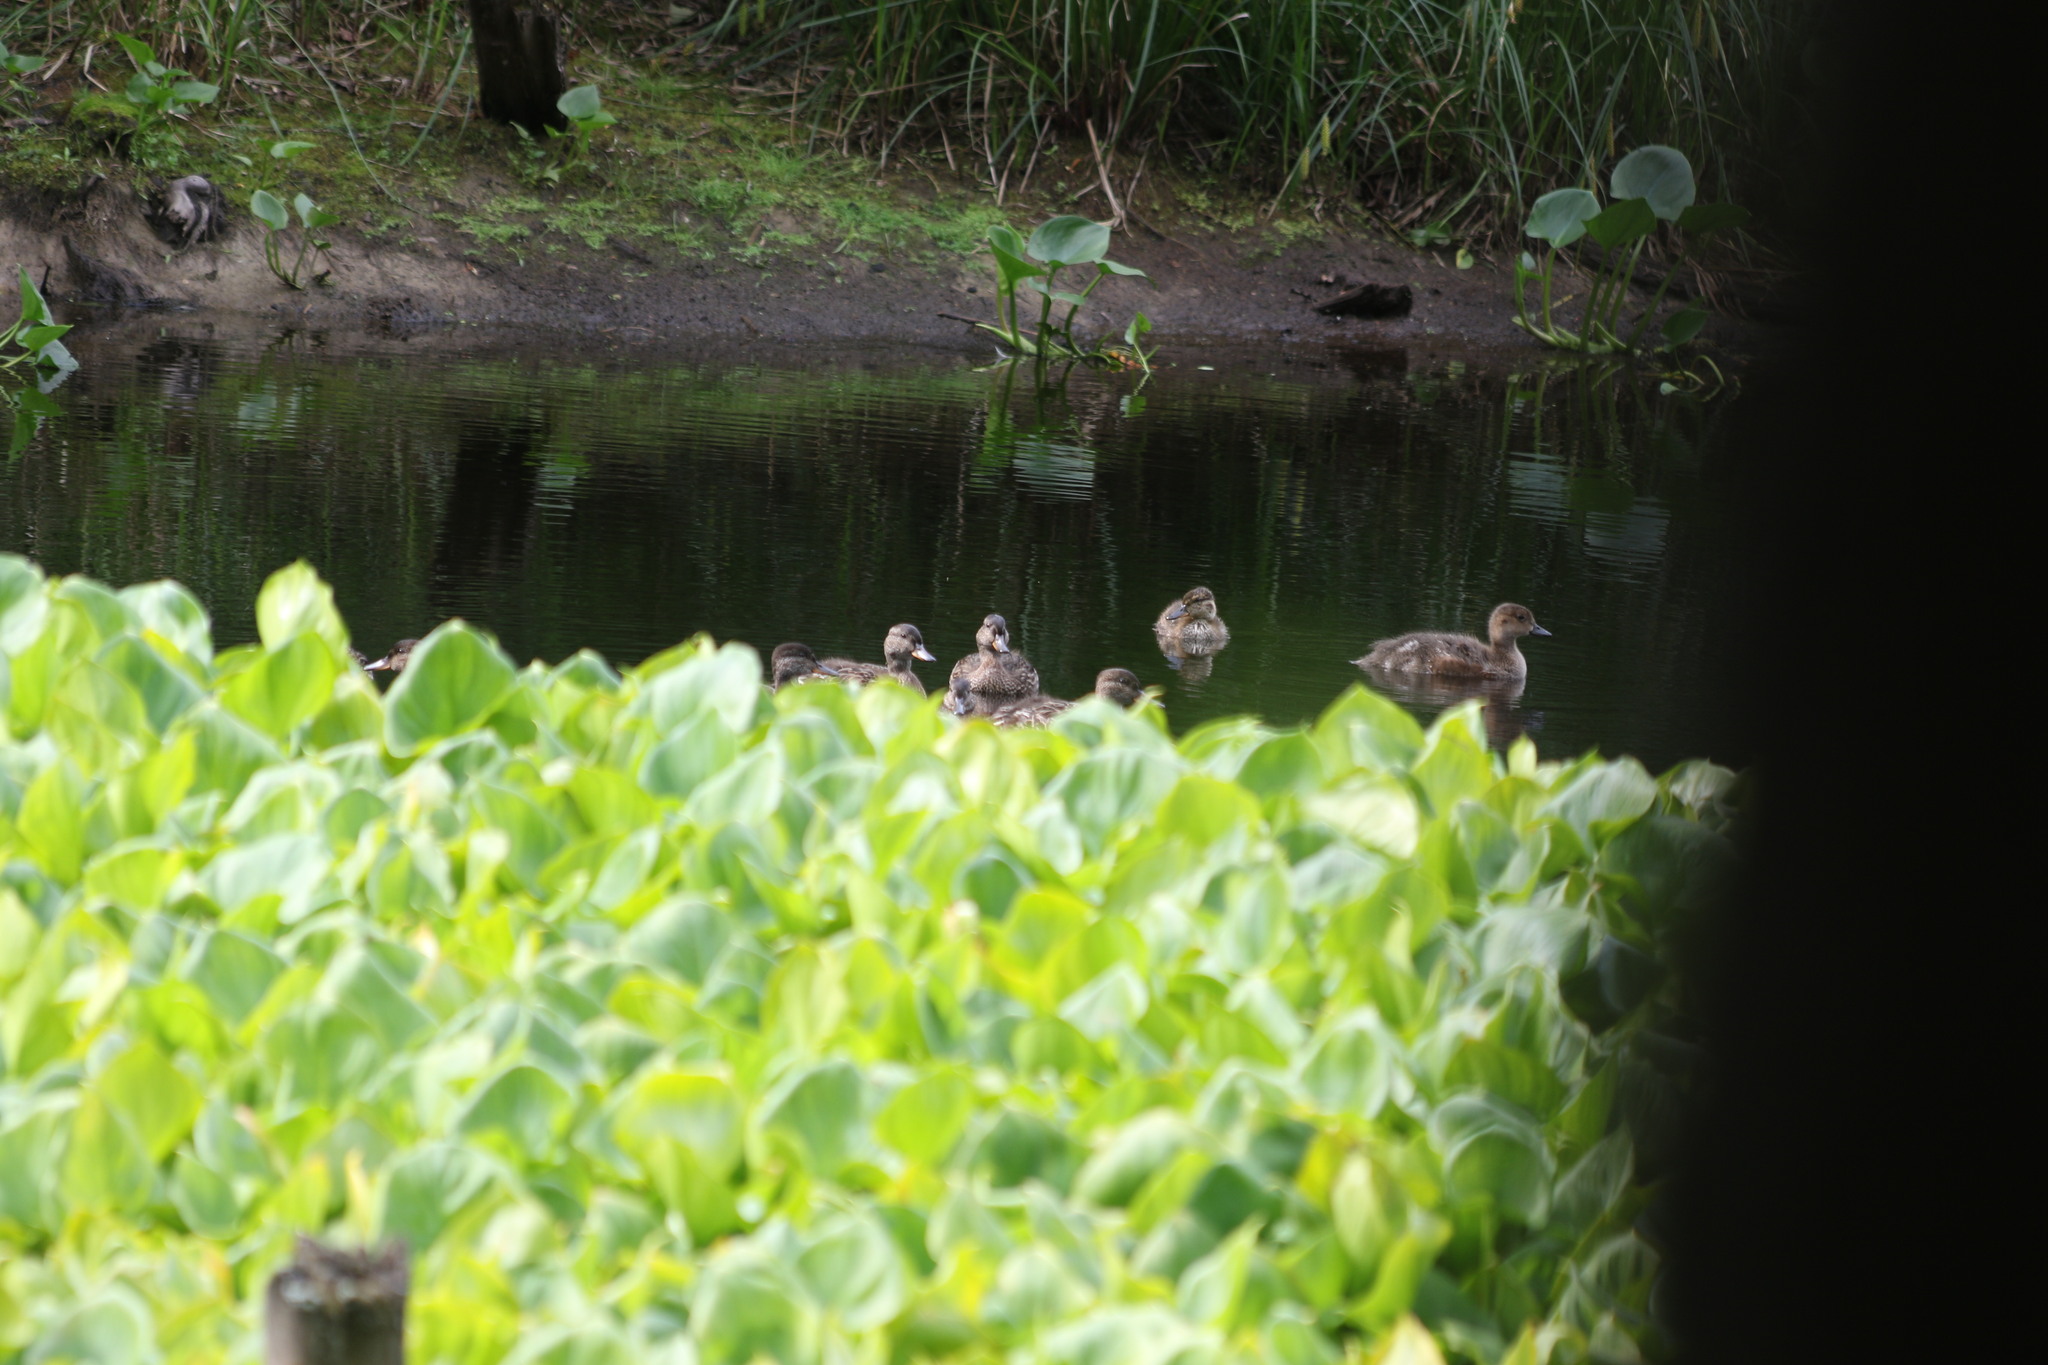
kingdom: Animalia
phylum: Chordata
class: Aves
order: Anseriformes
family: Anatidae
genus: Anas
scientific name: Anas platyrhynchos
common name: Mallard
